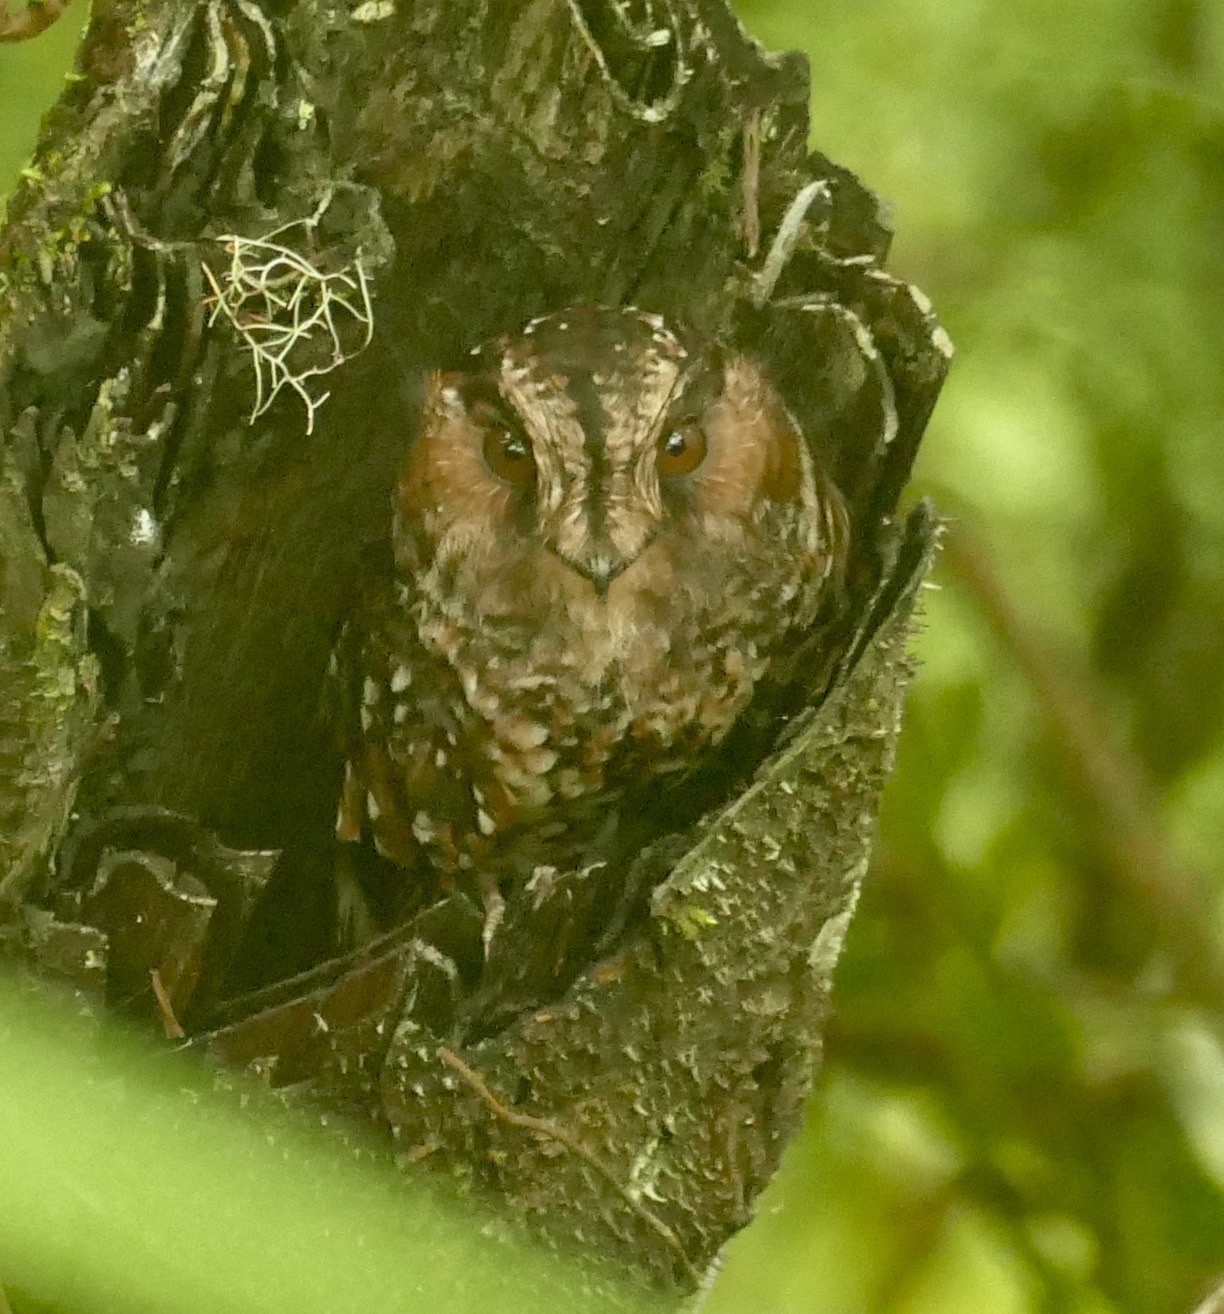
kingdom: Animalia
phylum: Chordata
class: Aves
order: Apodiformes
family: Aegothelidae
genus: Aegotheles
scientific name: Aegotheles albertisi
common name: Mountain owlet-nightjar
